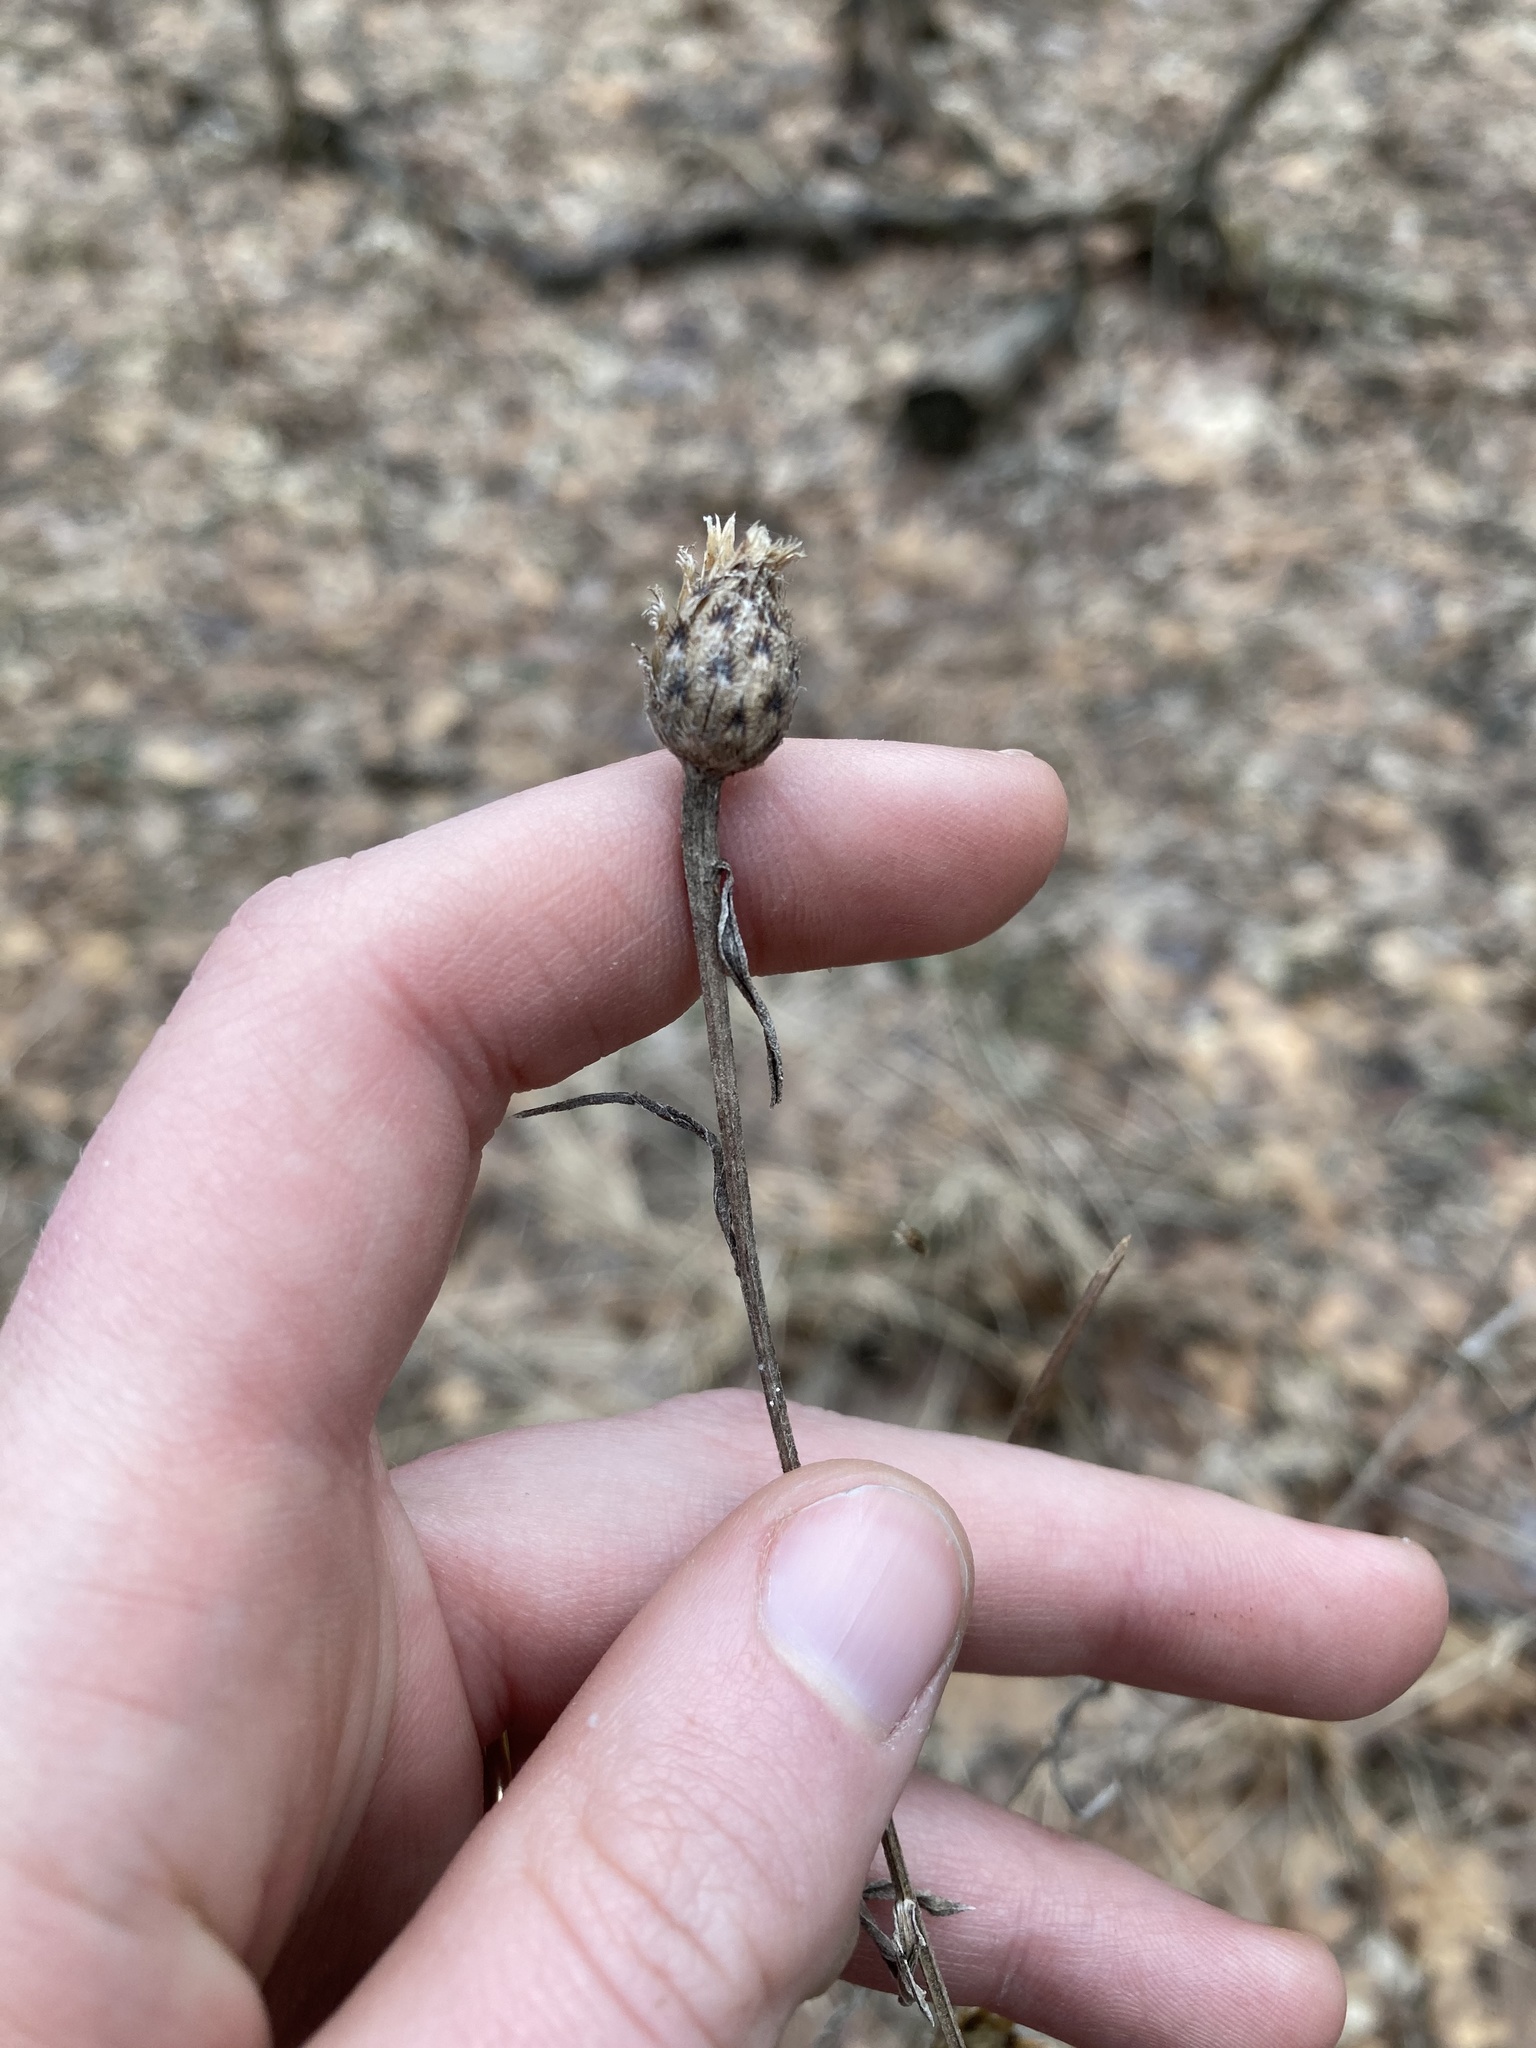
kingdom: Plantae
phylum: Tracheophyta
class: Magnoliopsida
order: Asterales
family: Asteraceae
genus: Centaurea
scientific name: Centaurea stoebe
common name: Spotted knapweed
